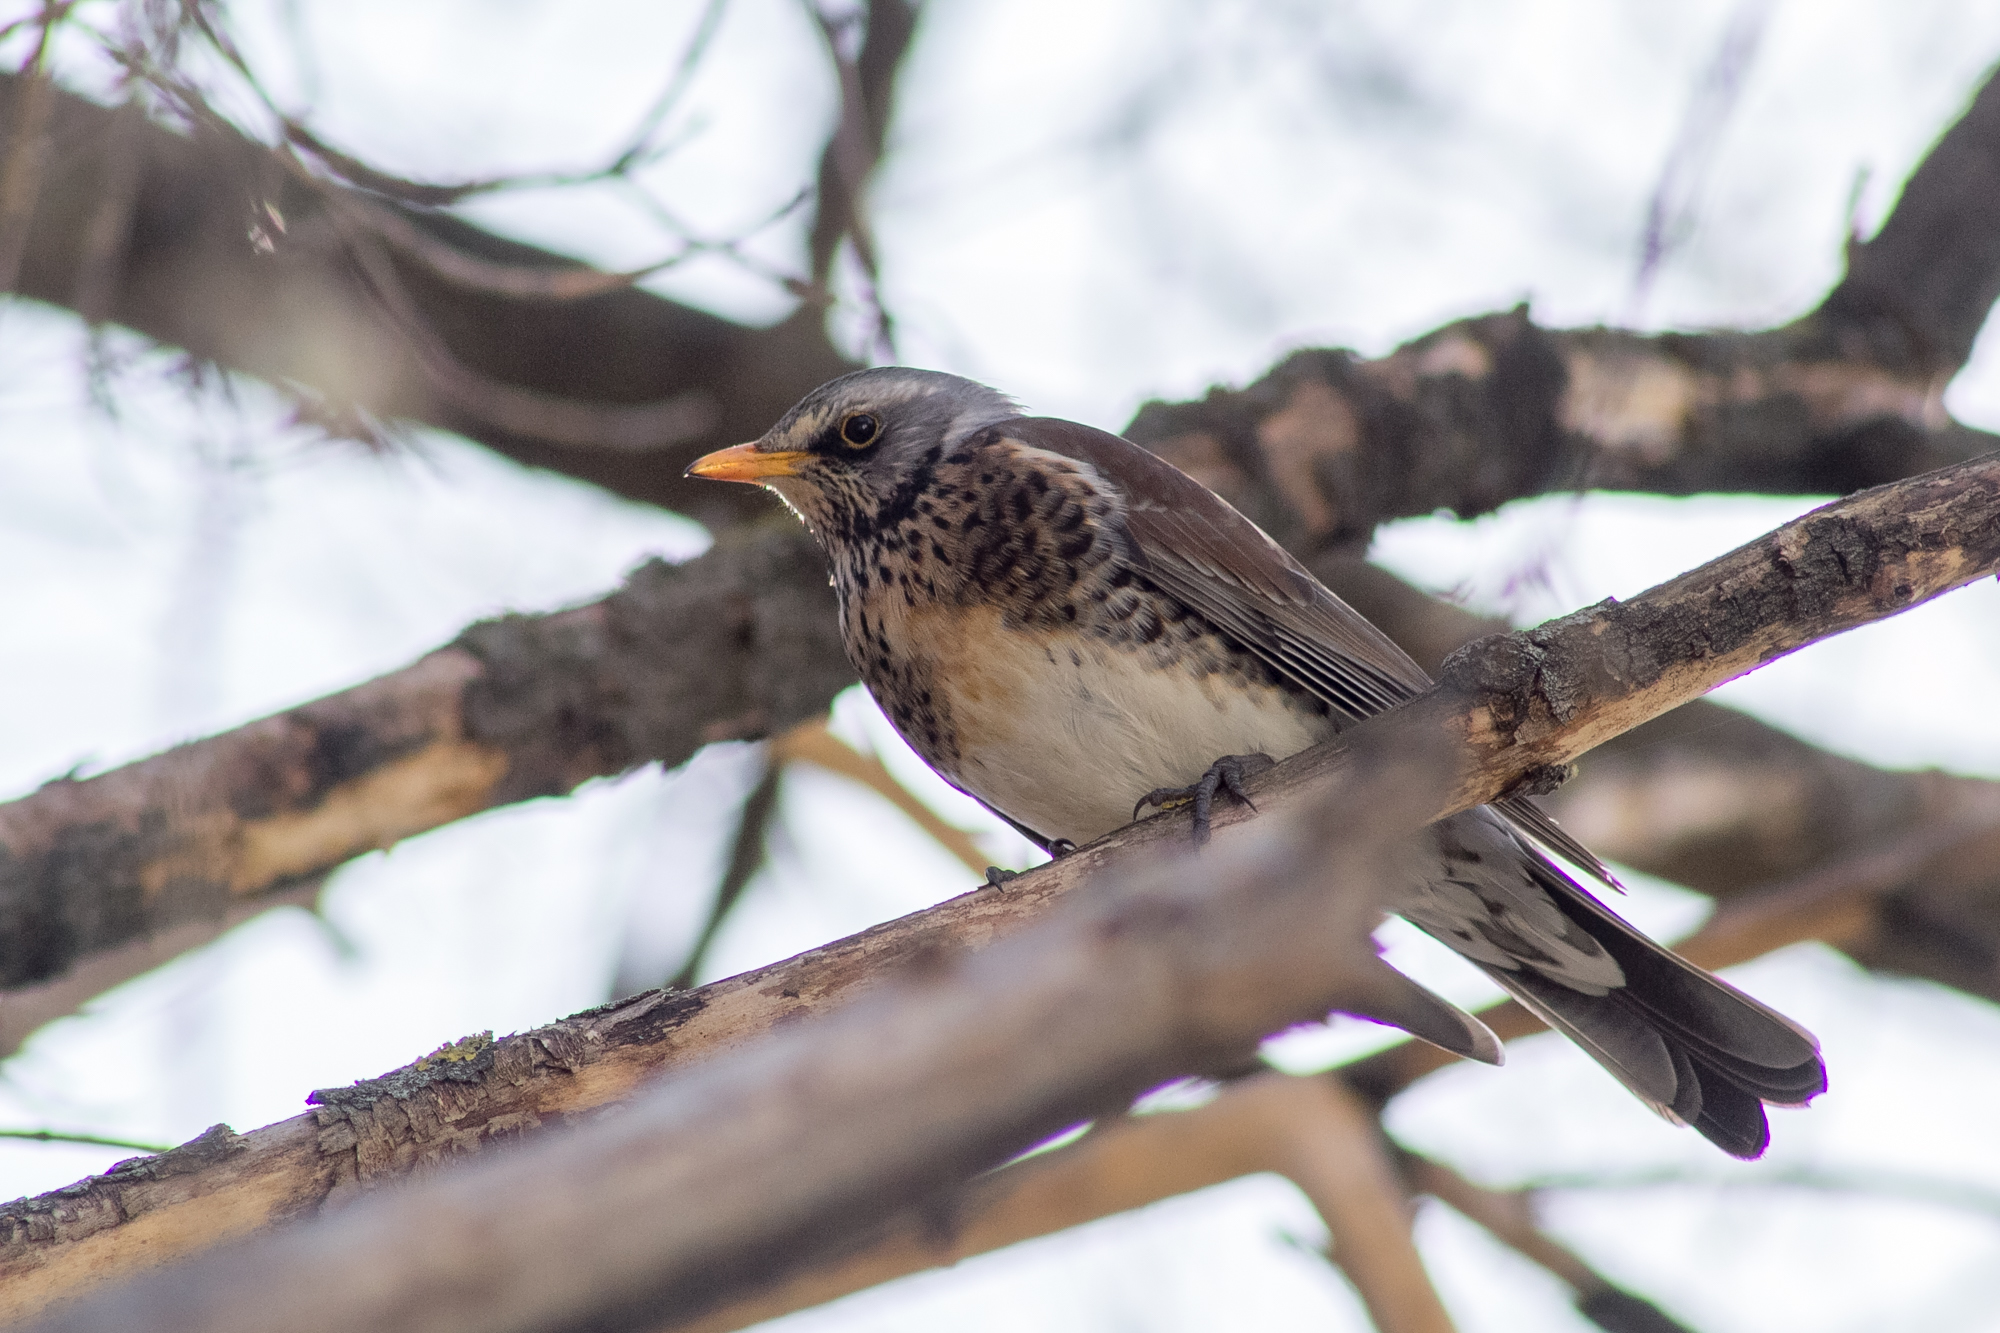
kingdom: Animalia
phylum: Chordata
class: Aves
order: Passeriformes
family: Turdidae
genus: Turdus
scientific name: Turdus pilaris
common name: Fieldfare
